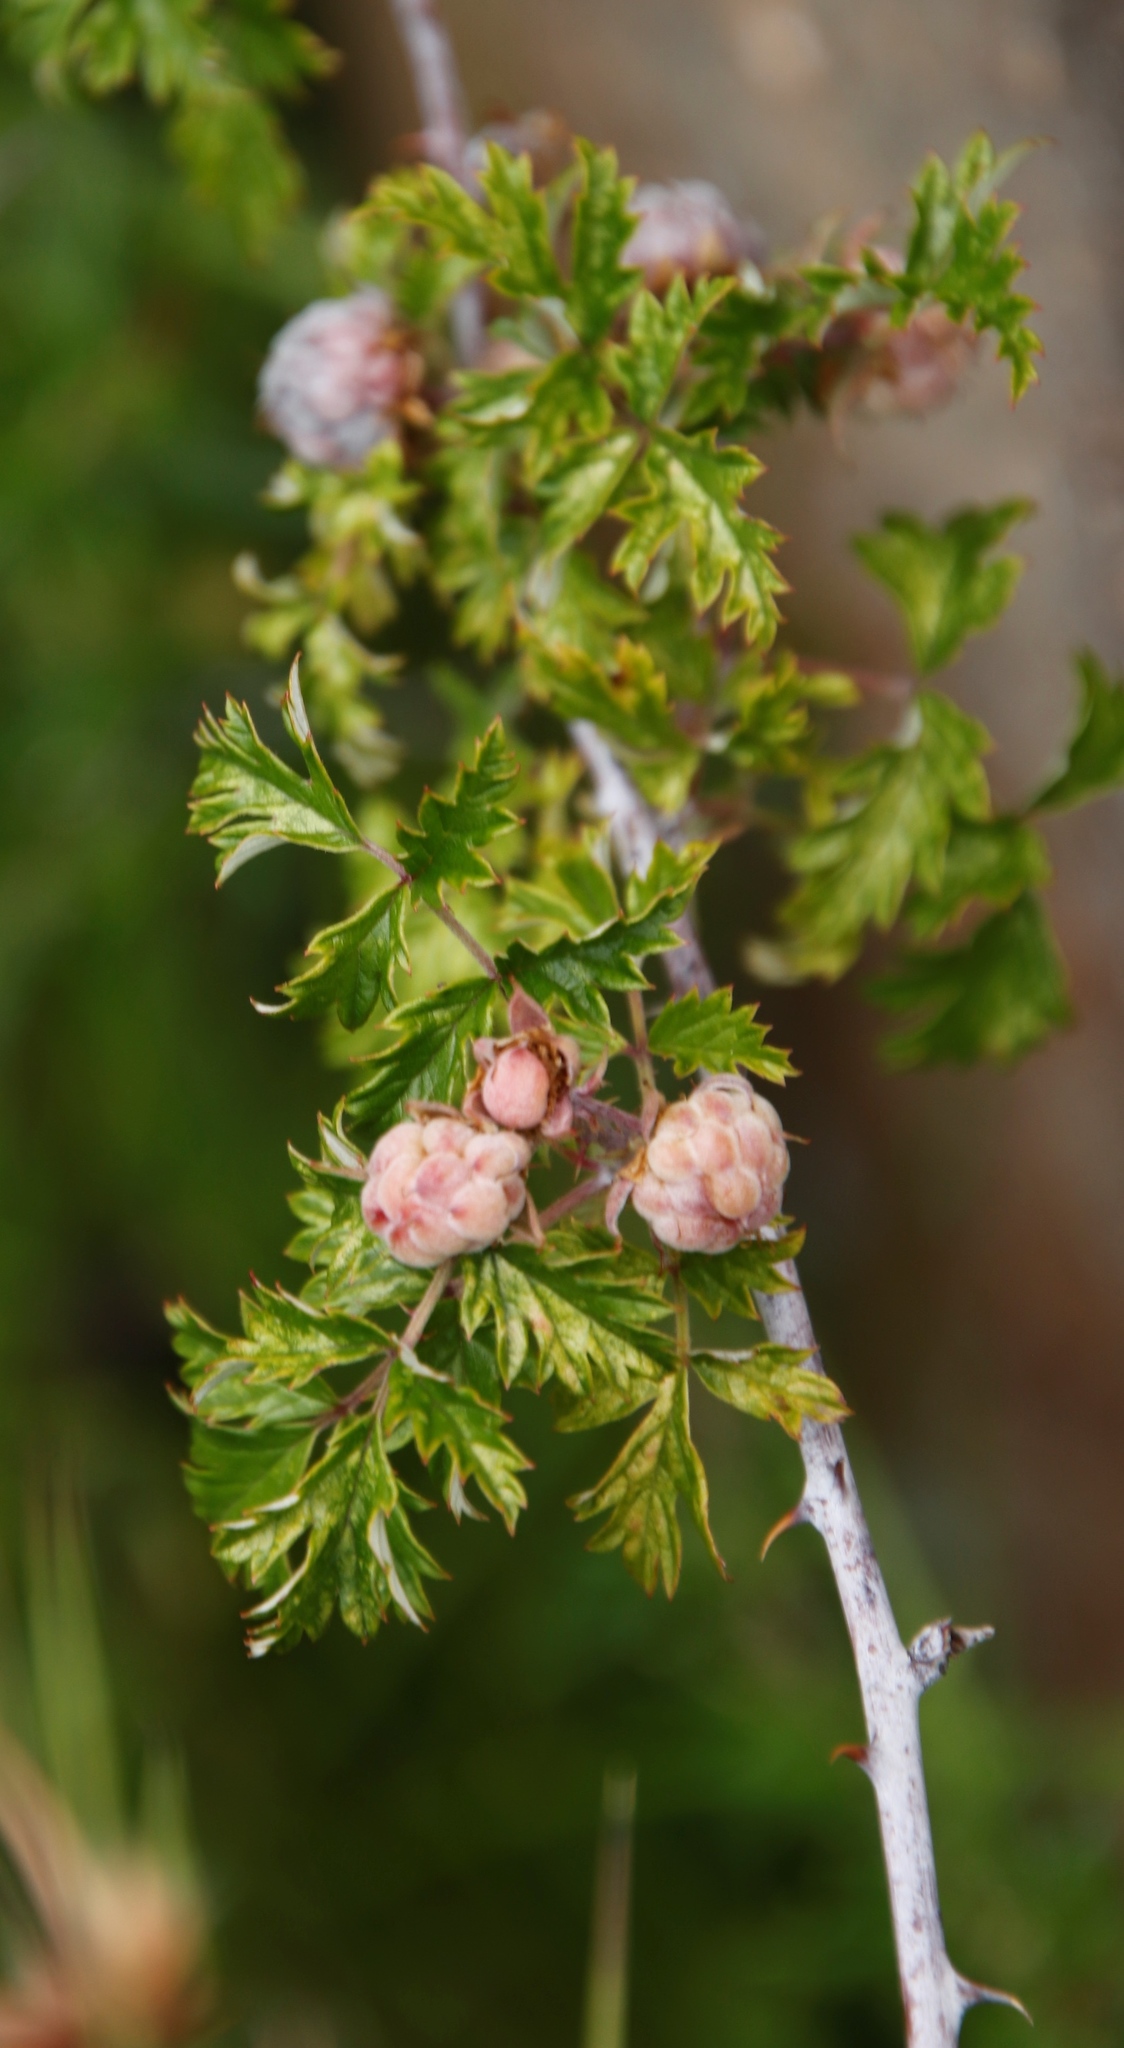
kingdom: Plantae
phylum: Tracheophyta
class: Magnoliopsida
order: Rosales
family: Rosaceae
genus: Rubus
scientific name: Rubus ludwigii
